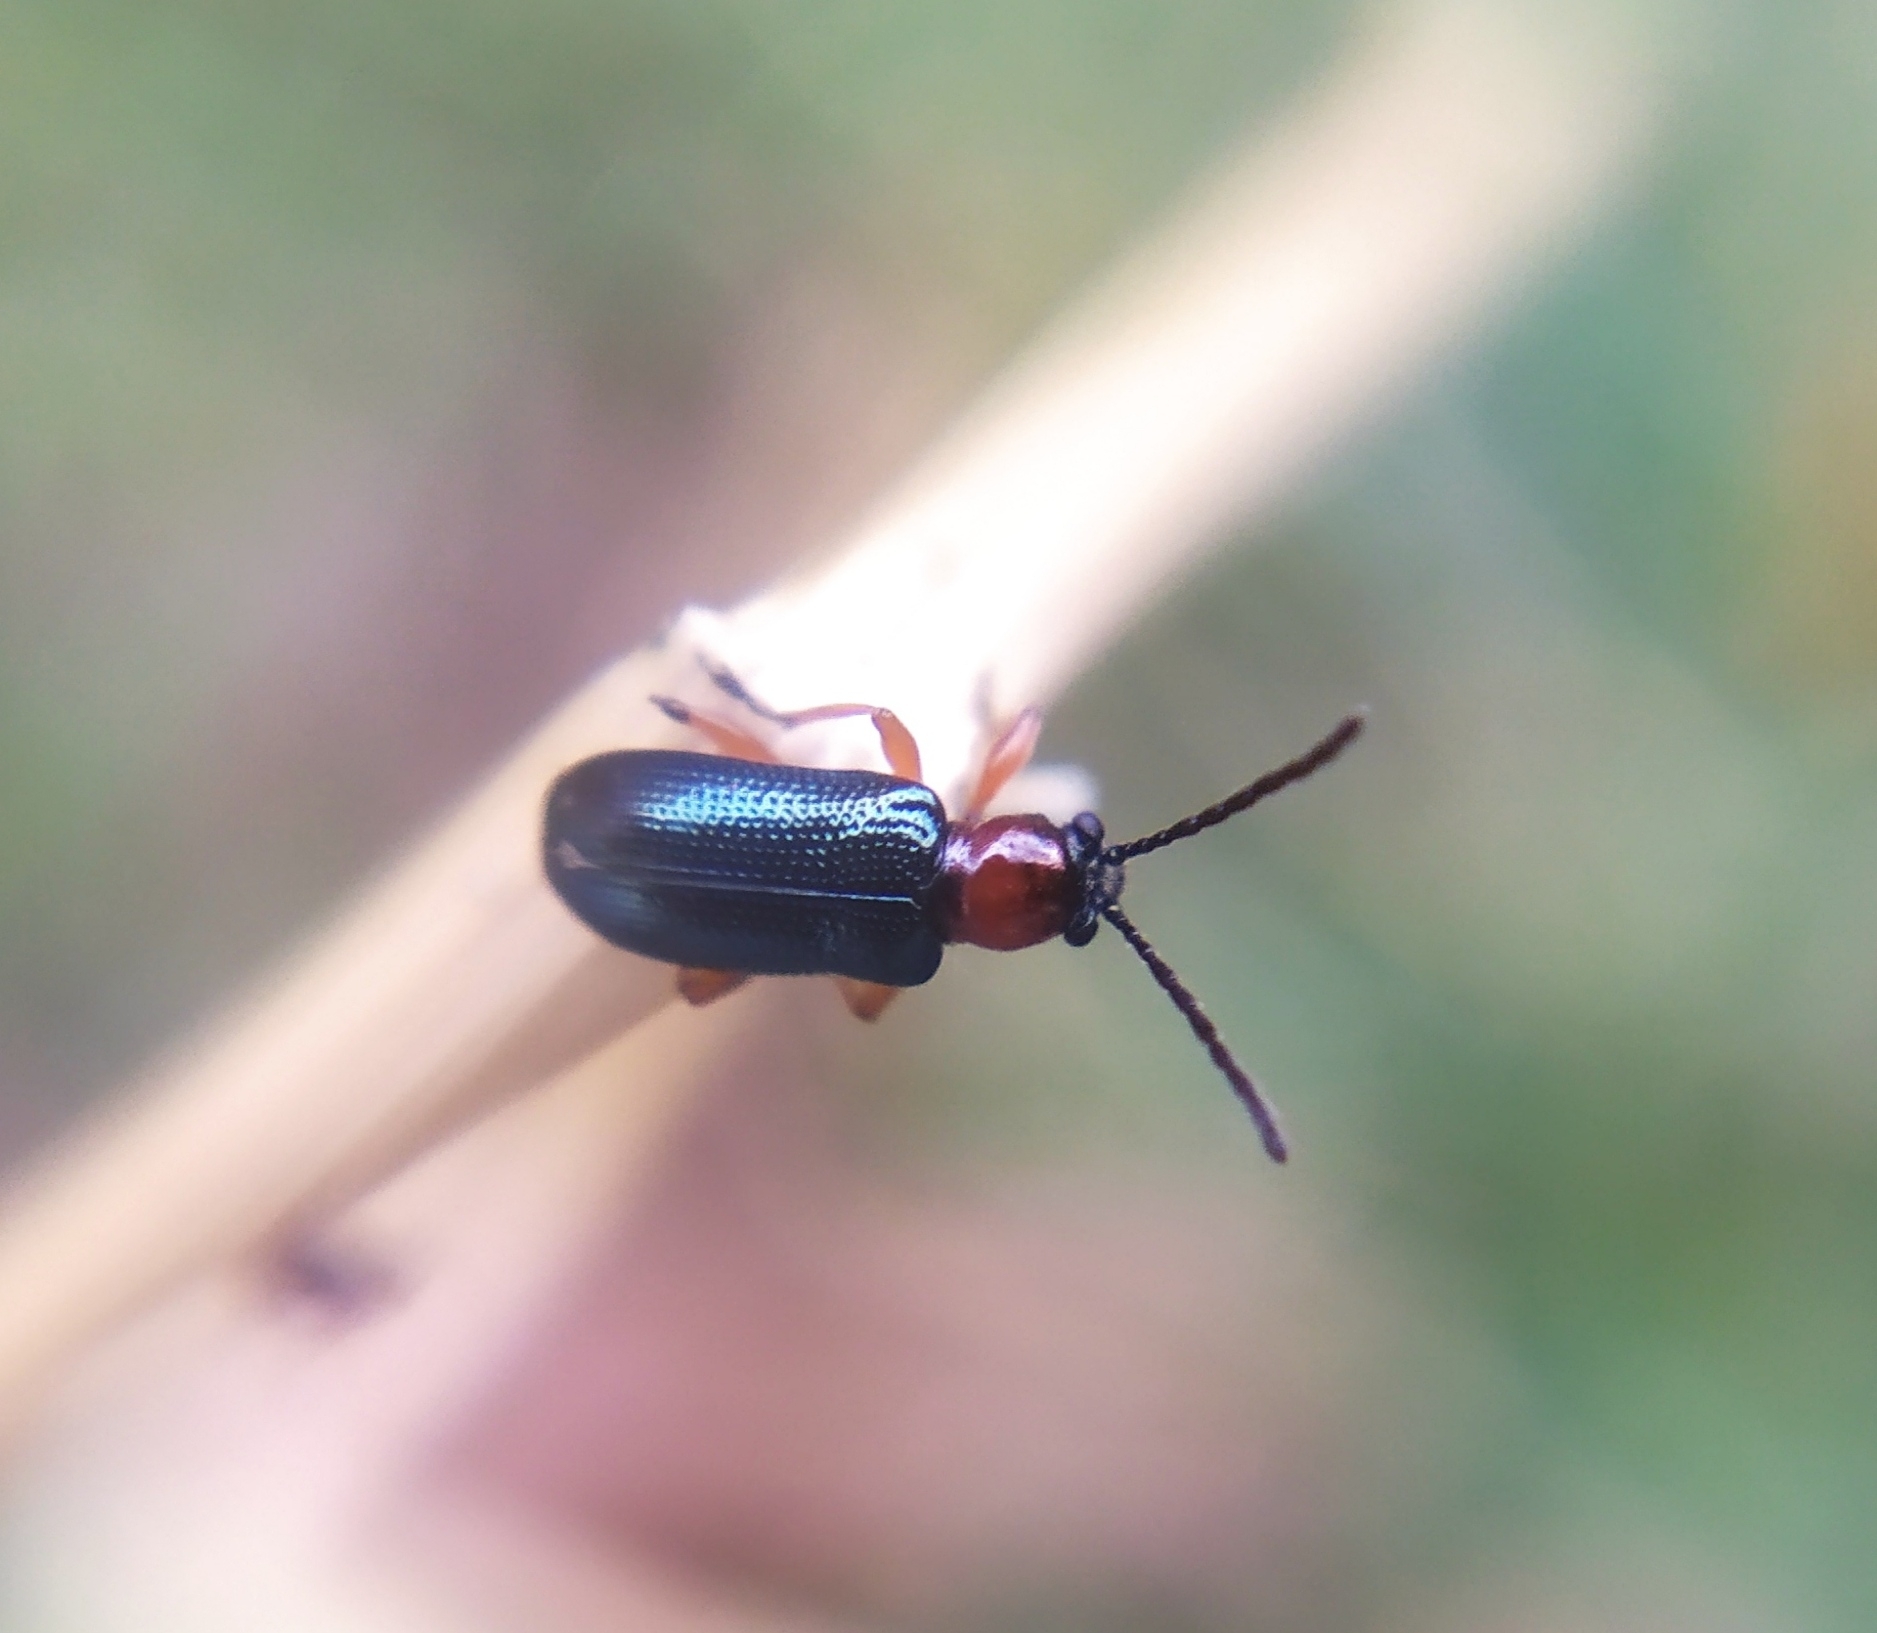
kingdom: Animalia
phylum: Arthropoda
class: Insecta
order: Coleoptera
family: Chrysomelidae
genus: Oulema
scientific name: Oulema duftschmidi
